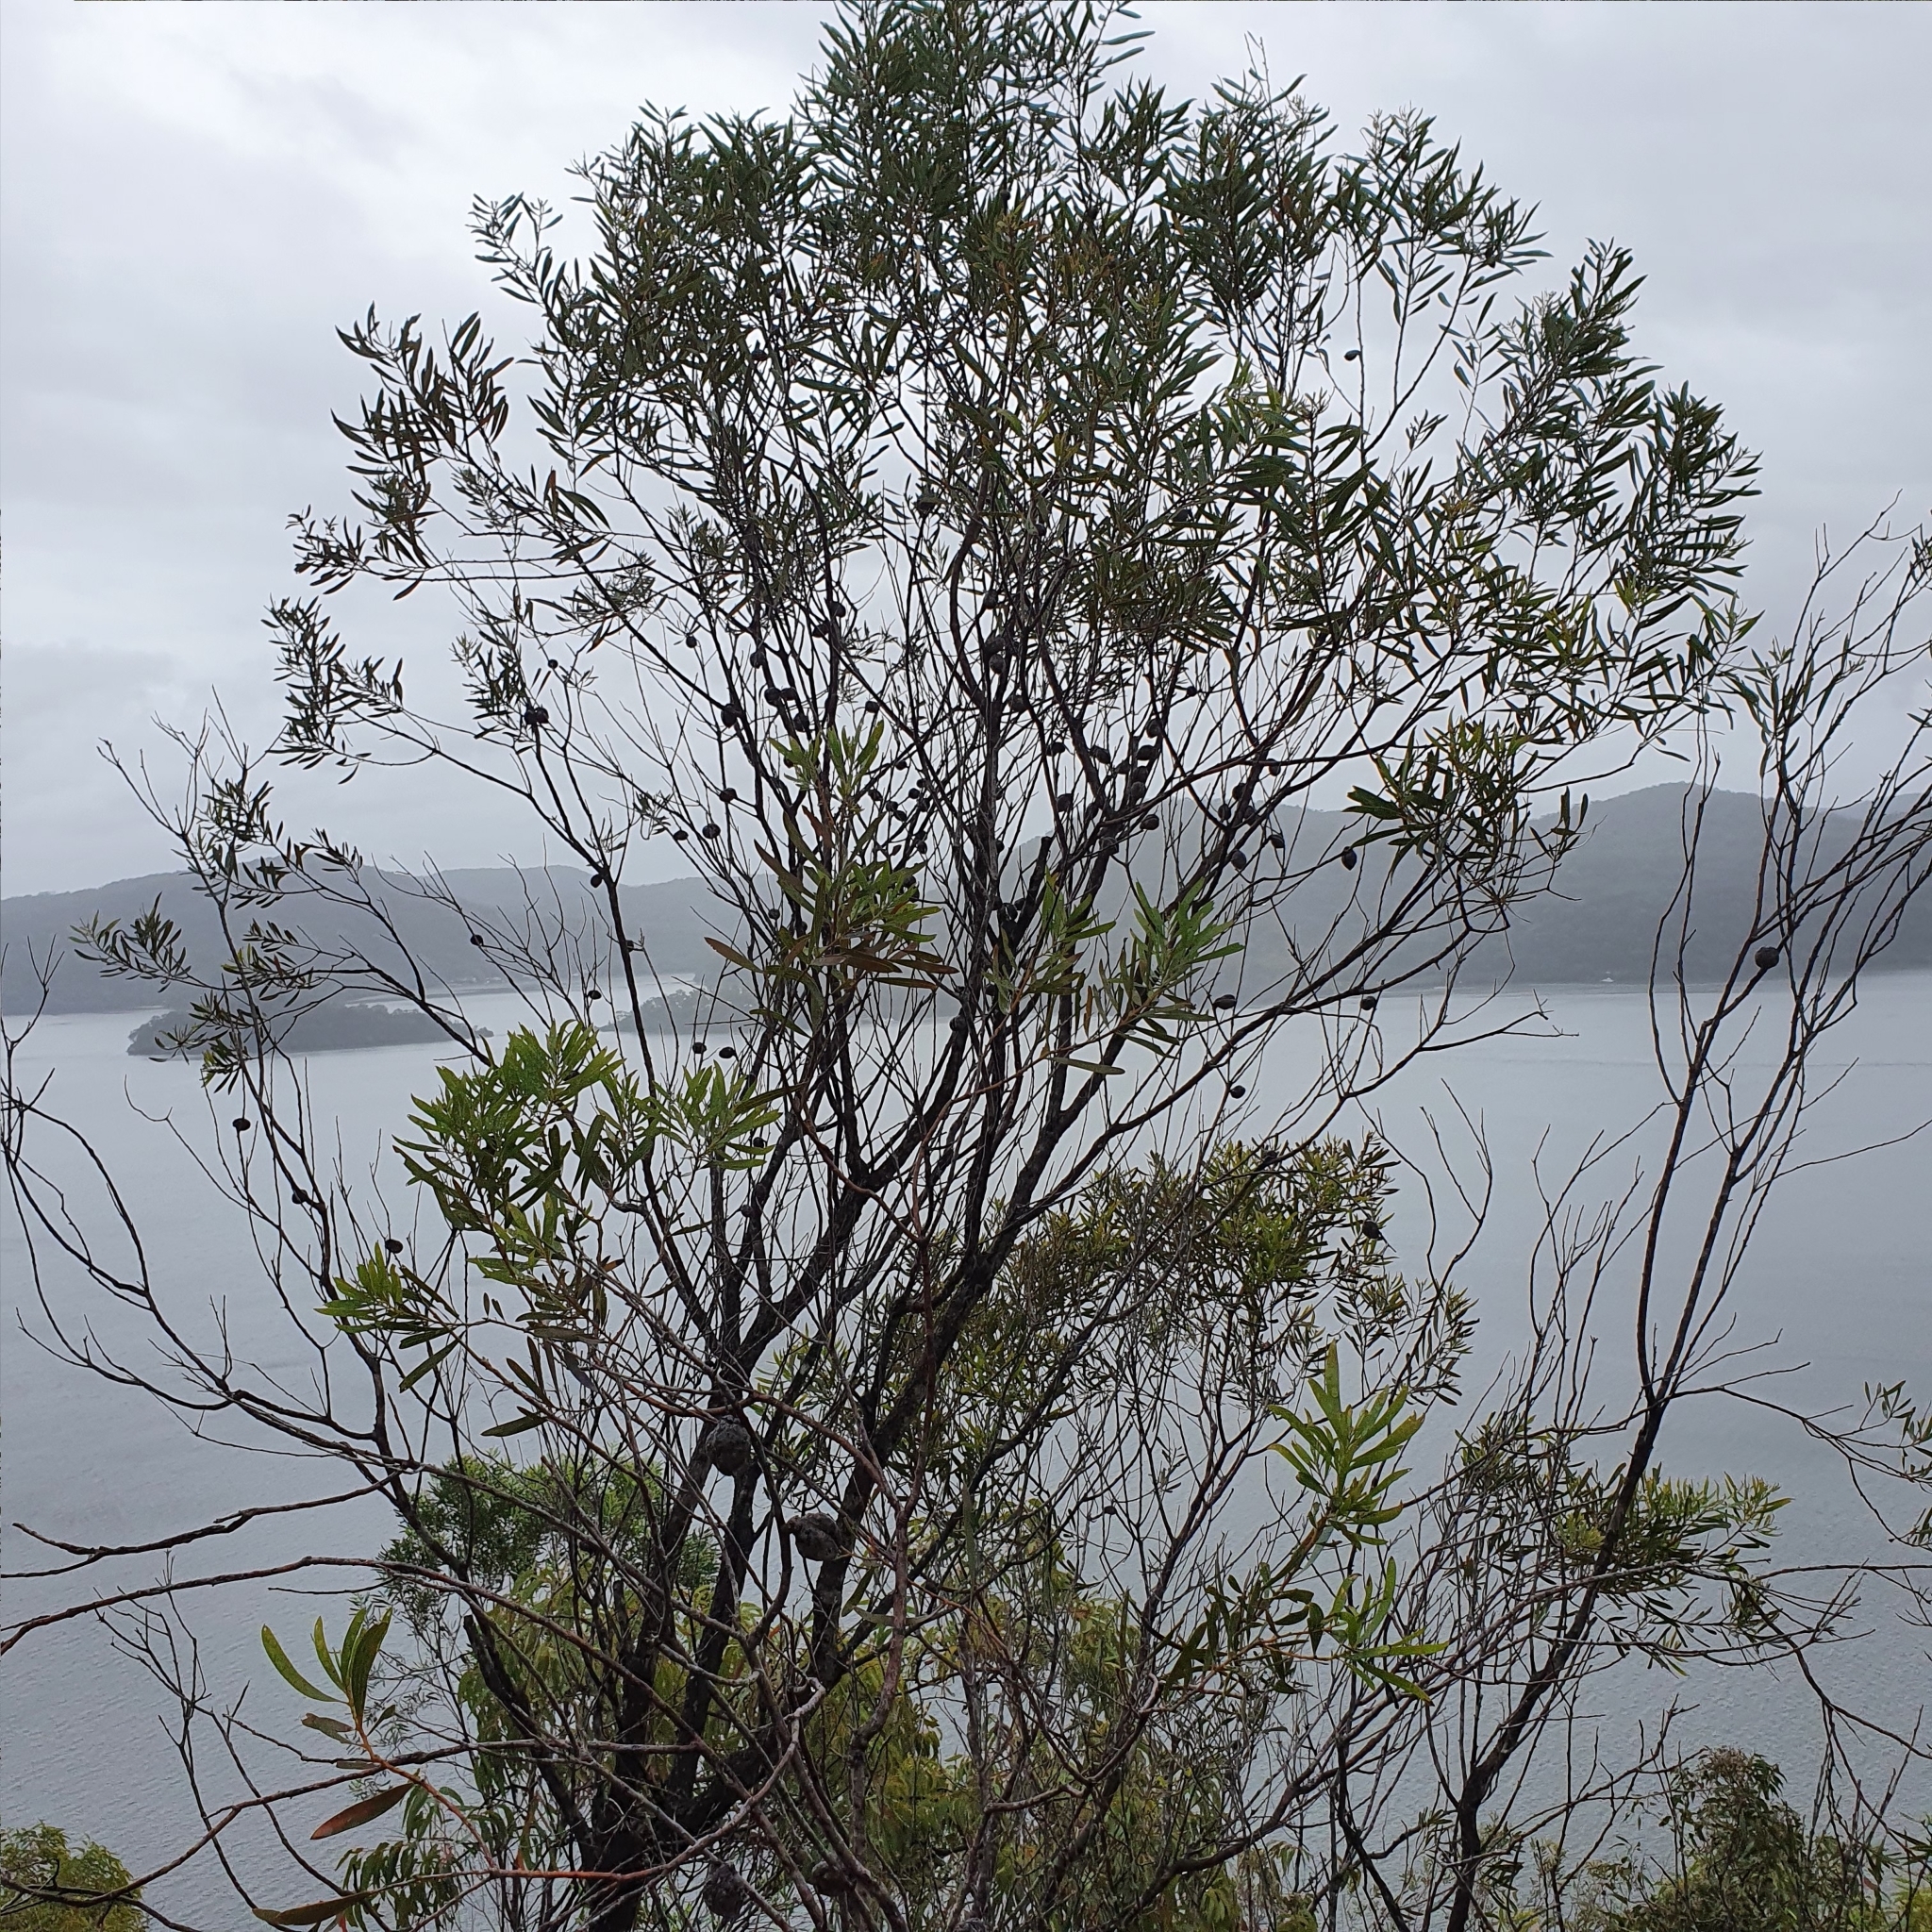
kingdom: Plantae
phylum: Tracheophyta
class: Magnoliopsida
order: Proteales
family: Proteaceae
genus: Hakea
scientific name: Hakea dactyloides
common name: Finger hakea
